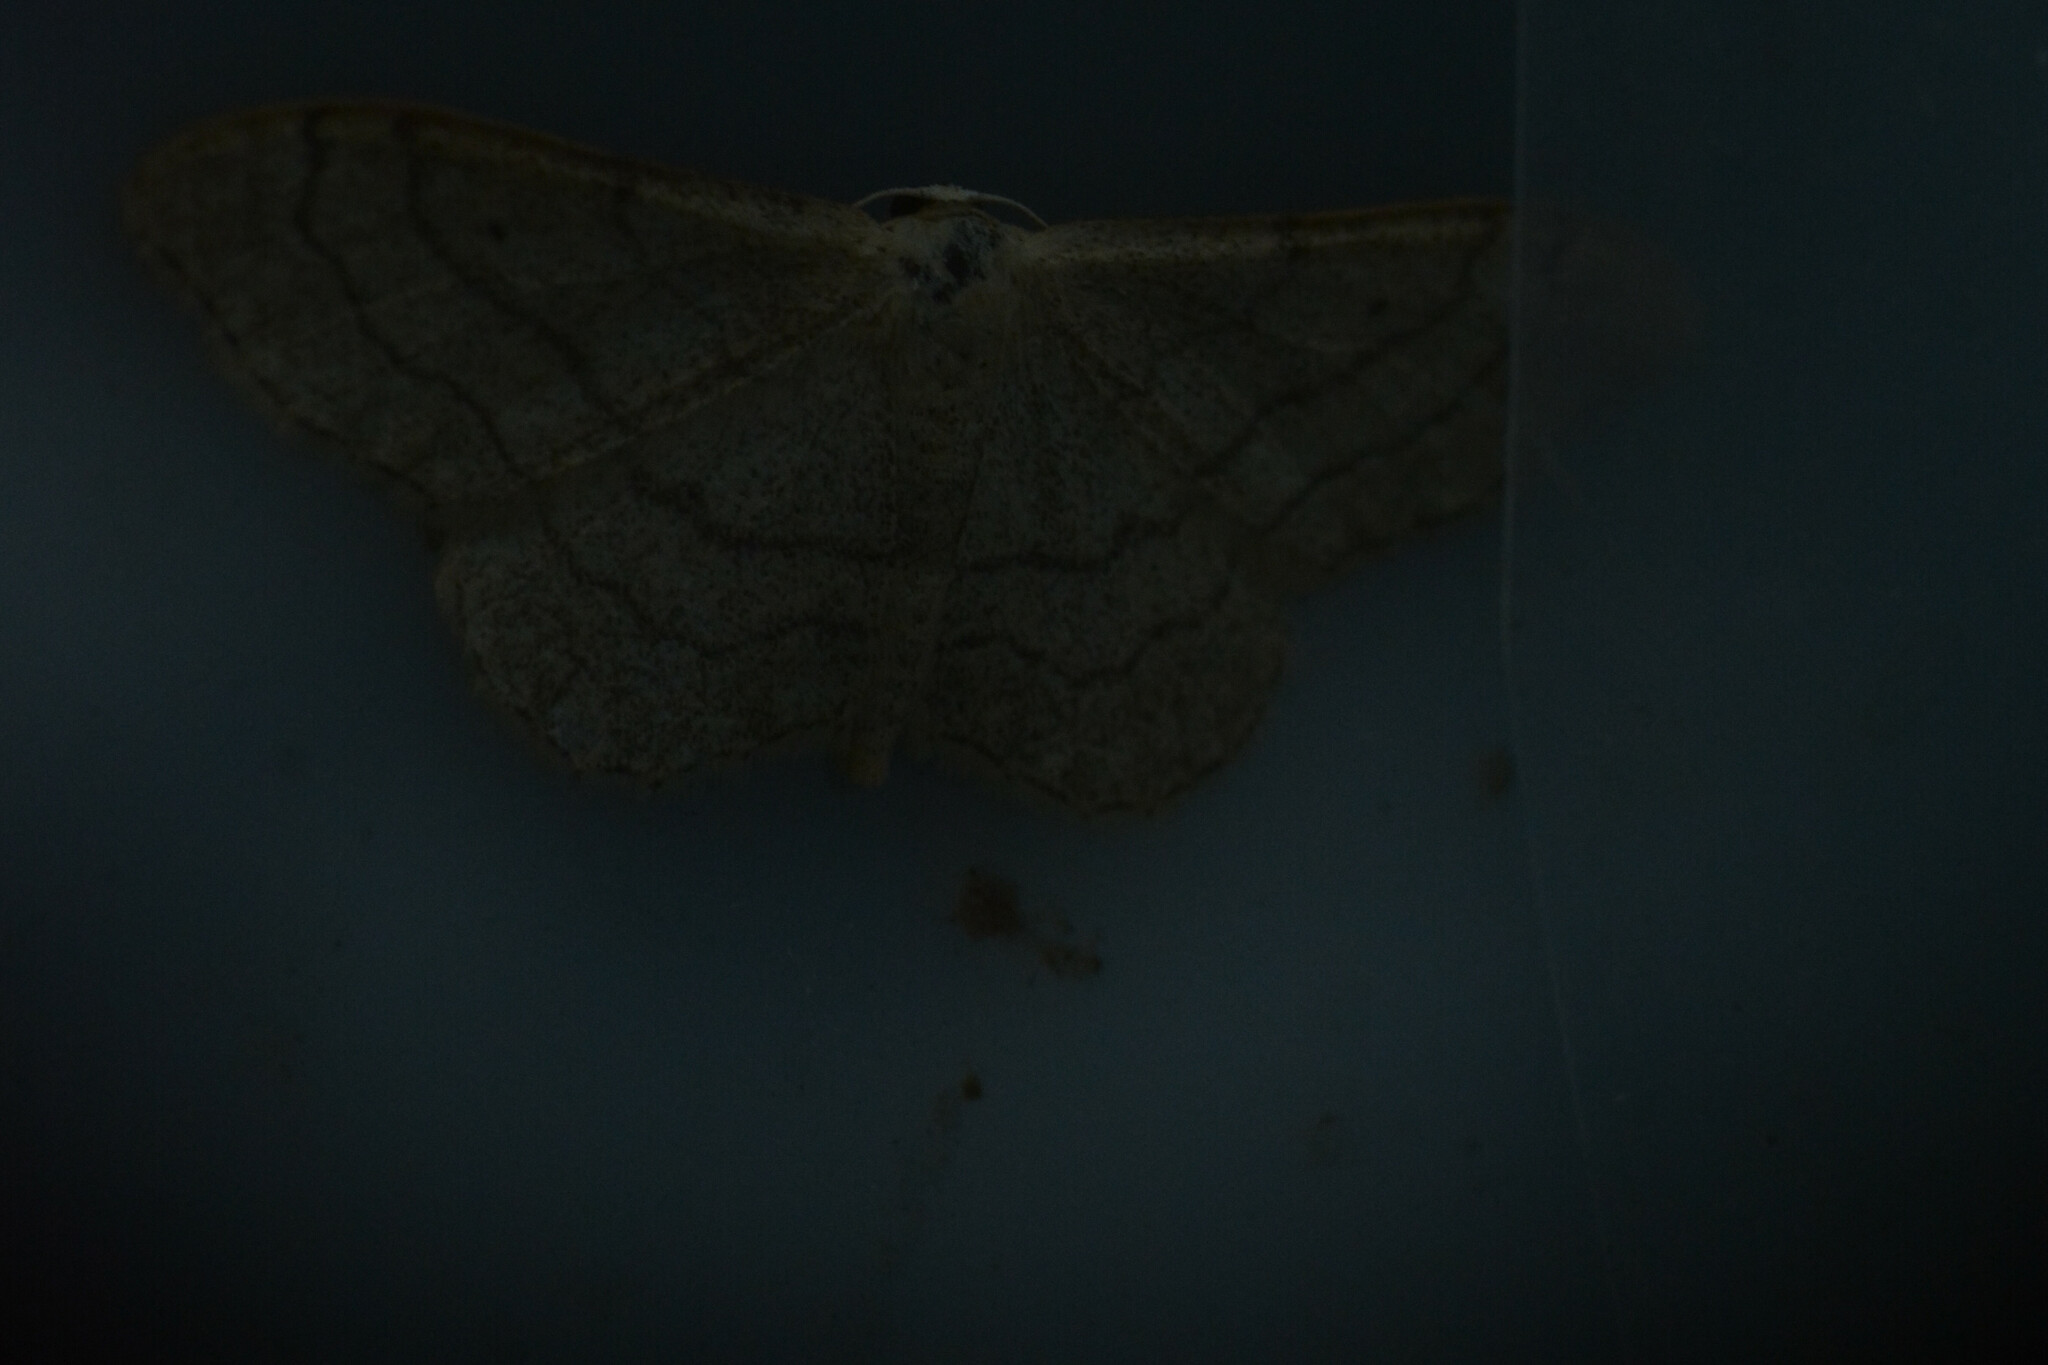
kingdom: Animalia
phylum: Arthropoda
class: Insecta
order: Lepidoptera
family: Geometridae
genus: Idaea
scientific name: Idaea aversata
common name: Riband wave
